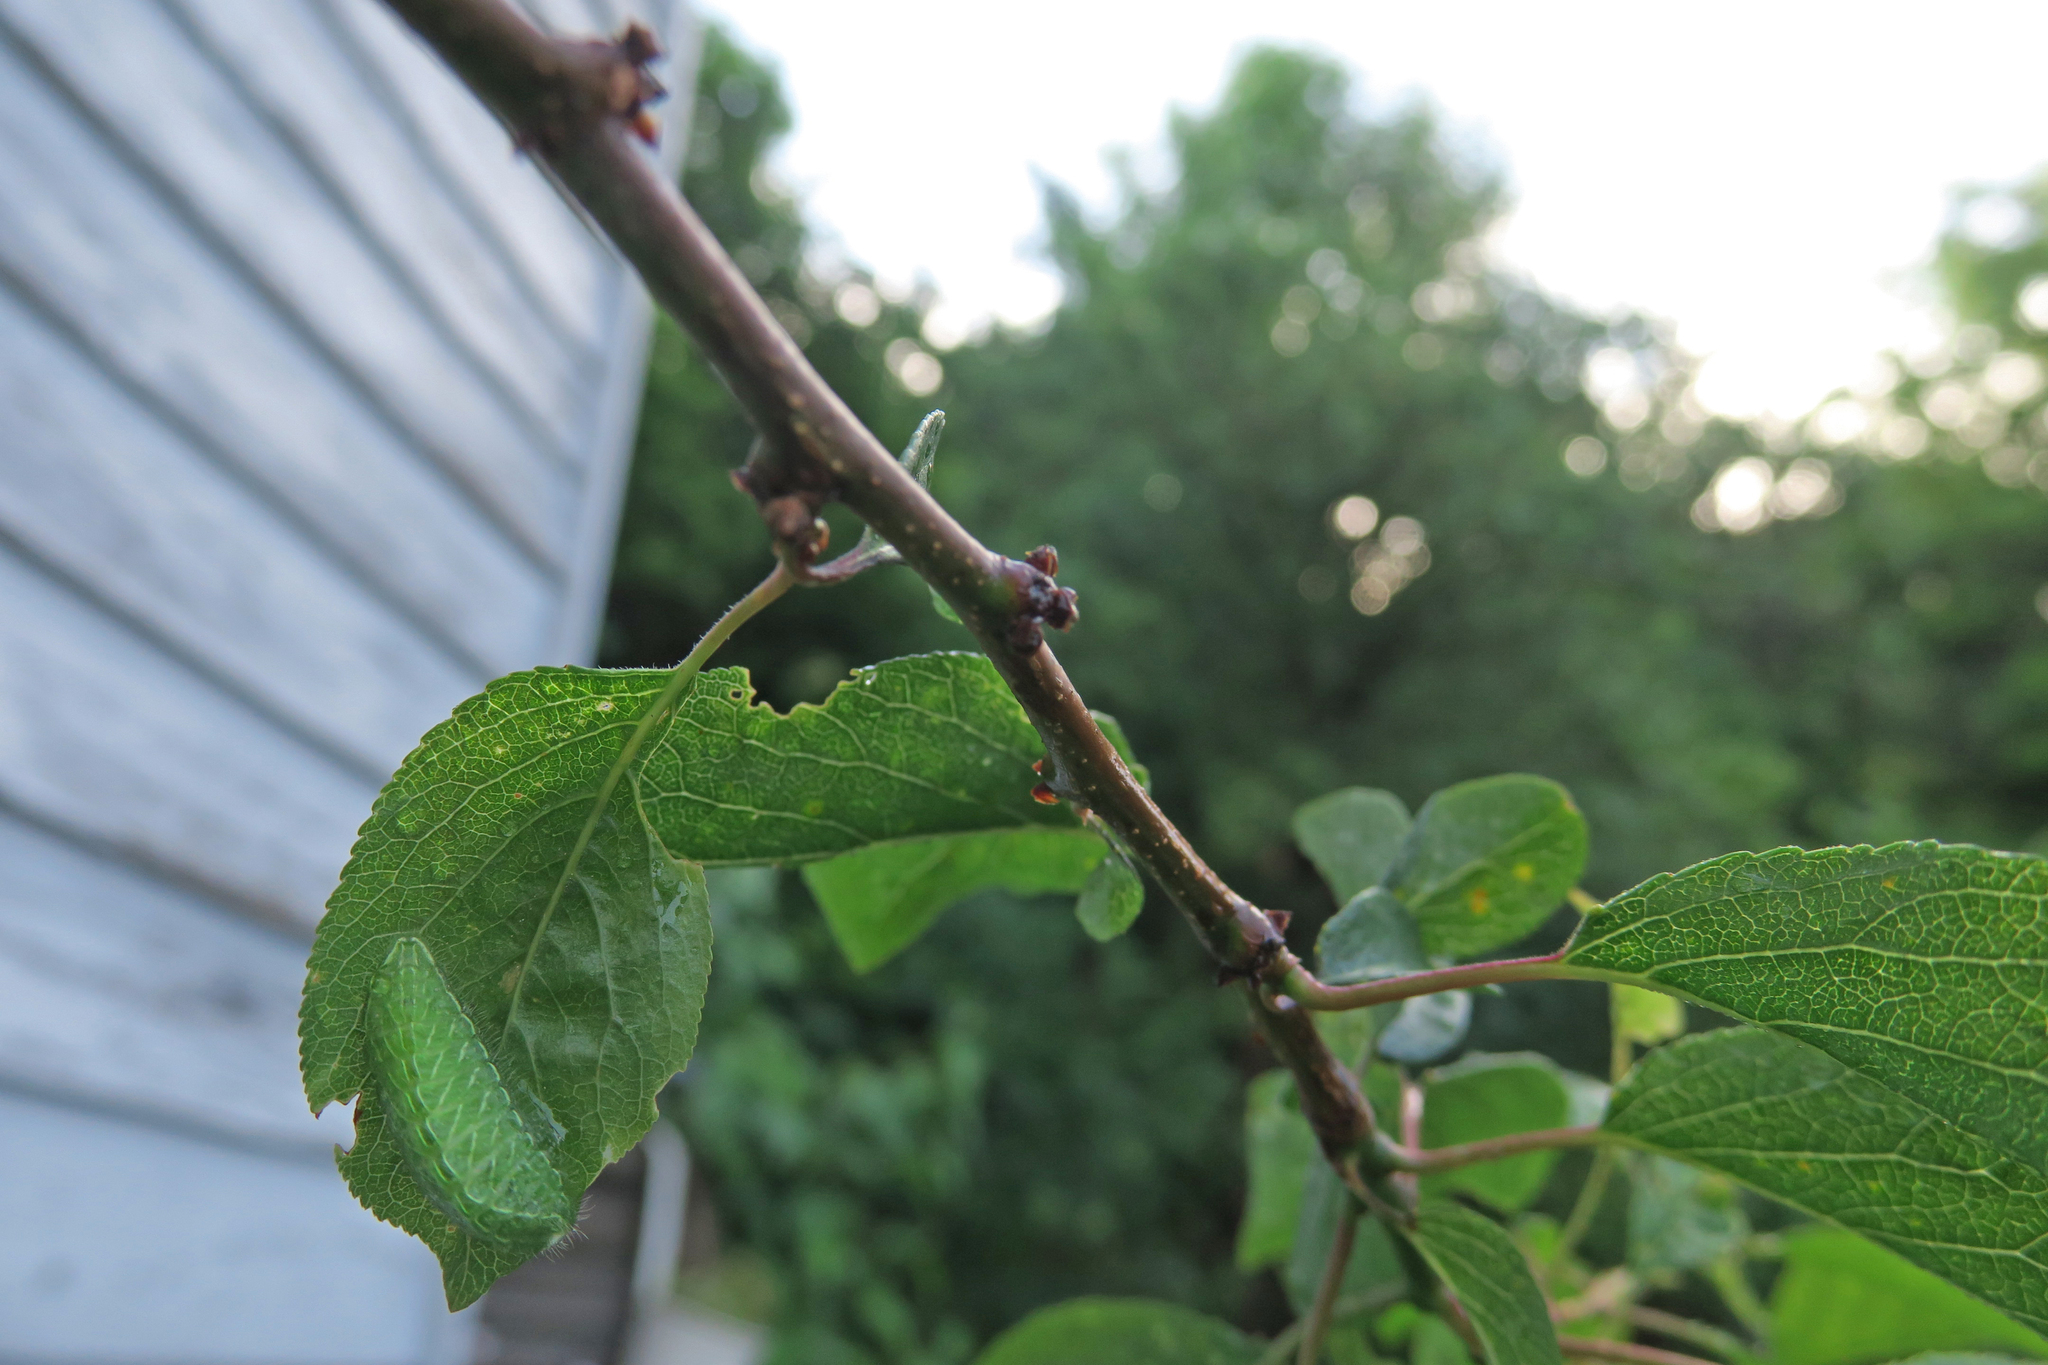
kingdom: Animalia
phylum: Arthropoda
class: Insecta
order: Lepidoptera
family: Lycaenidae
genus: Thecla
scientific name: Thecla betulae
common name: Brown hairstreak
